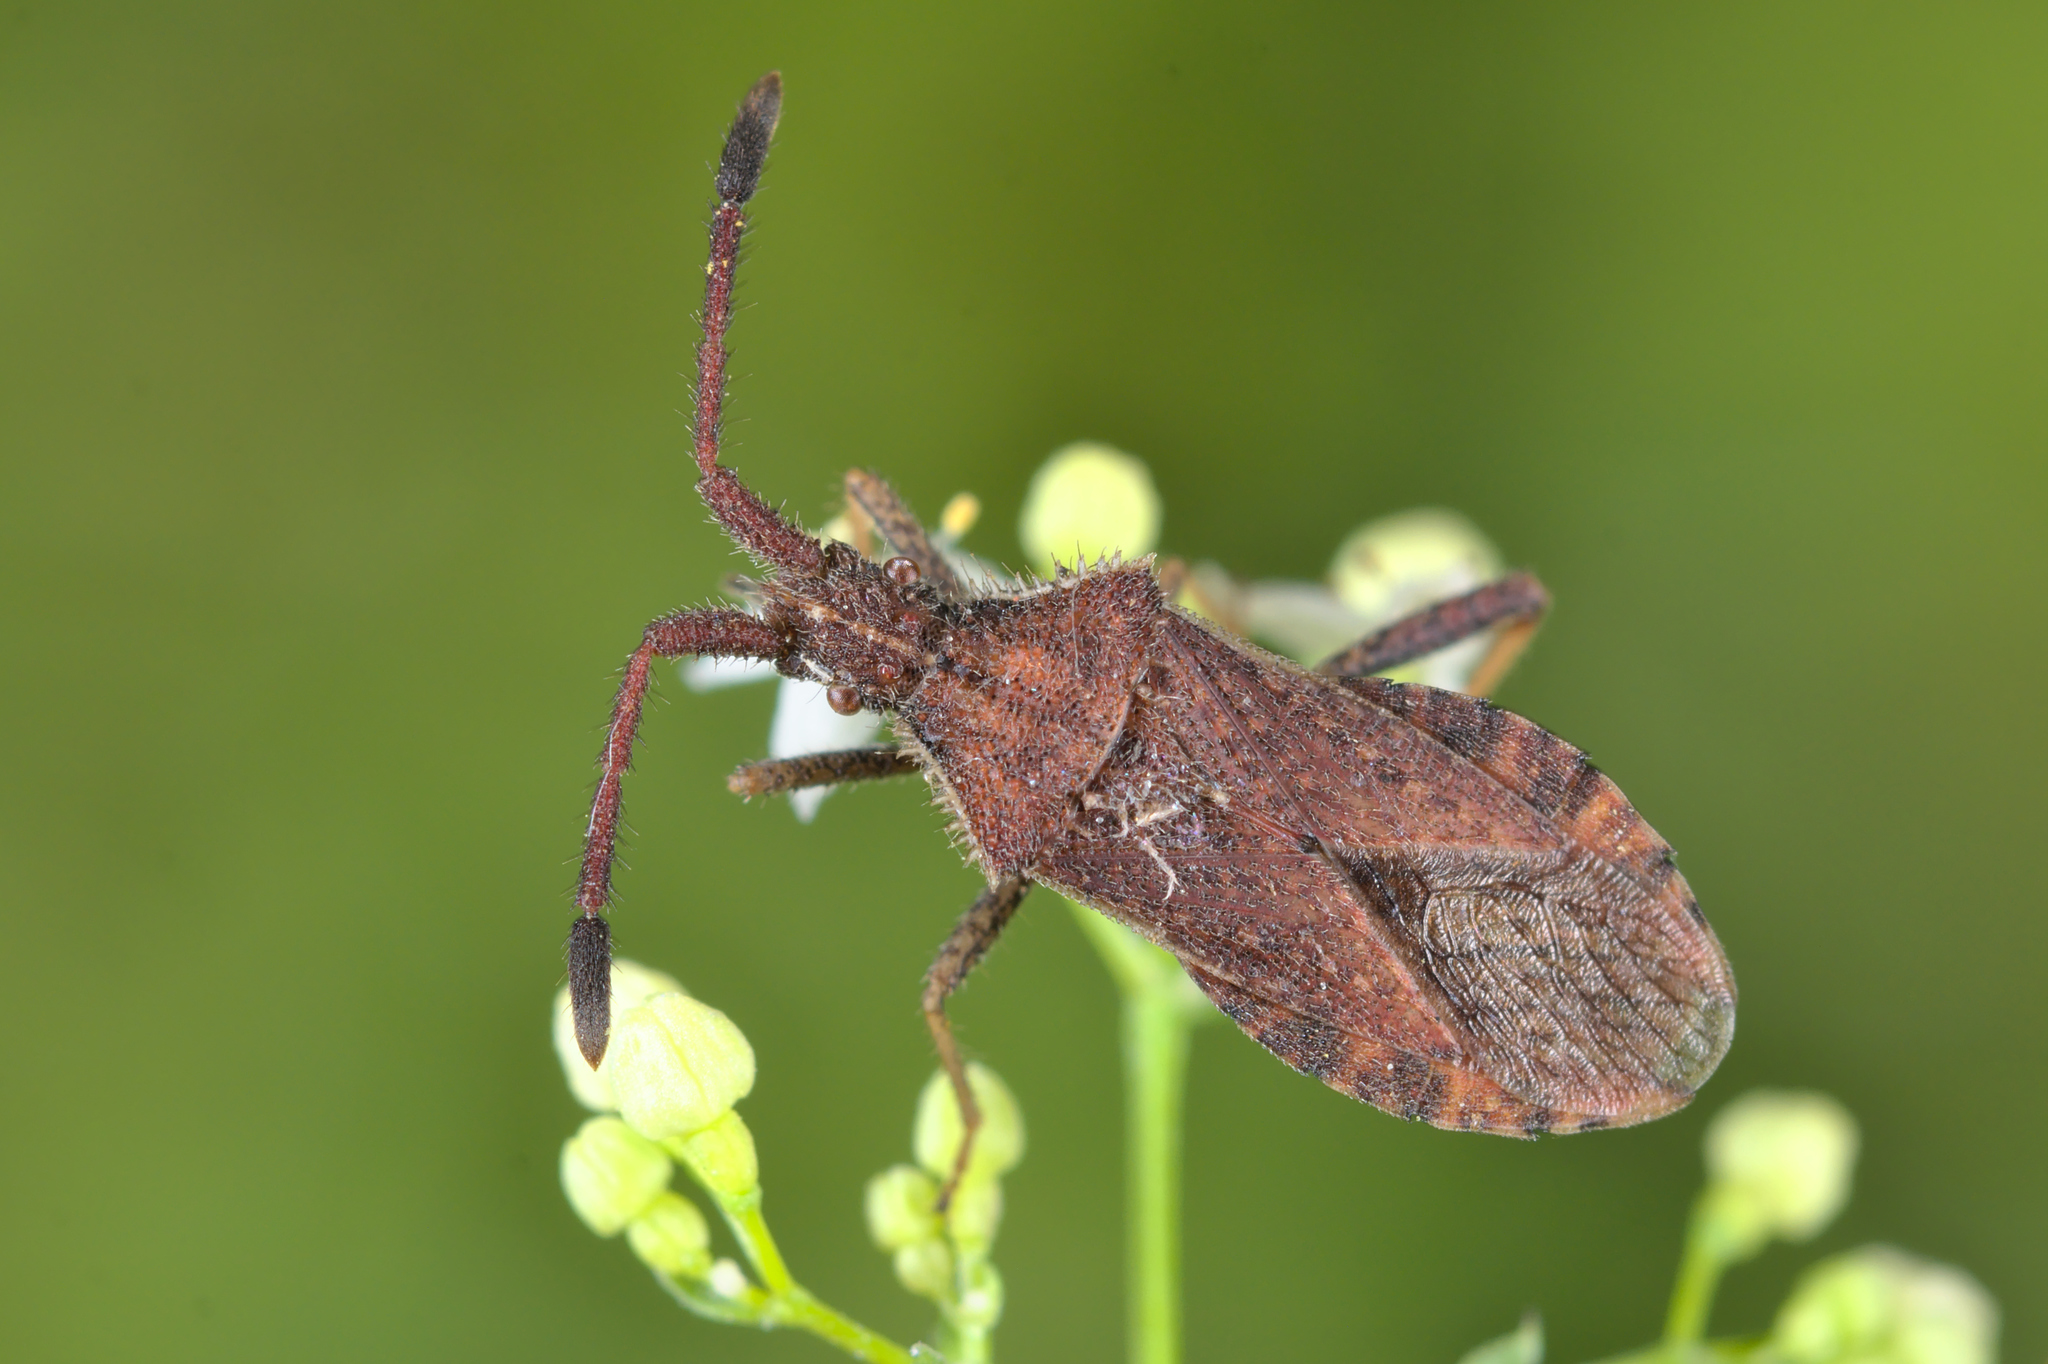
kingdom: Animalia
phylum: Arthropoda
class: Insecta
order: Hemiptera
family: Coreidae
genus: Coriomeris
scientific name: Coriomeris denticulatus
